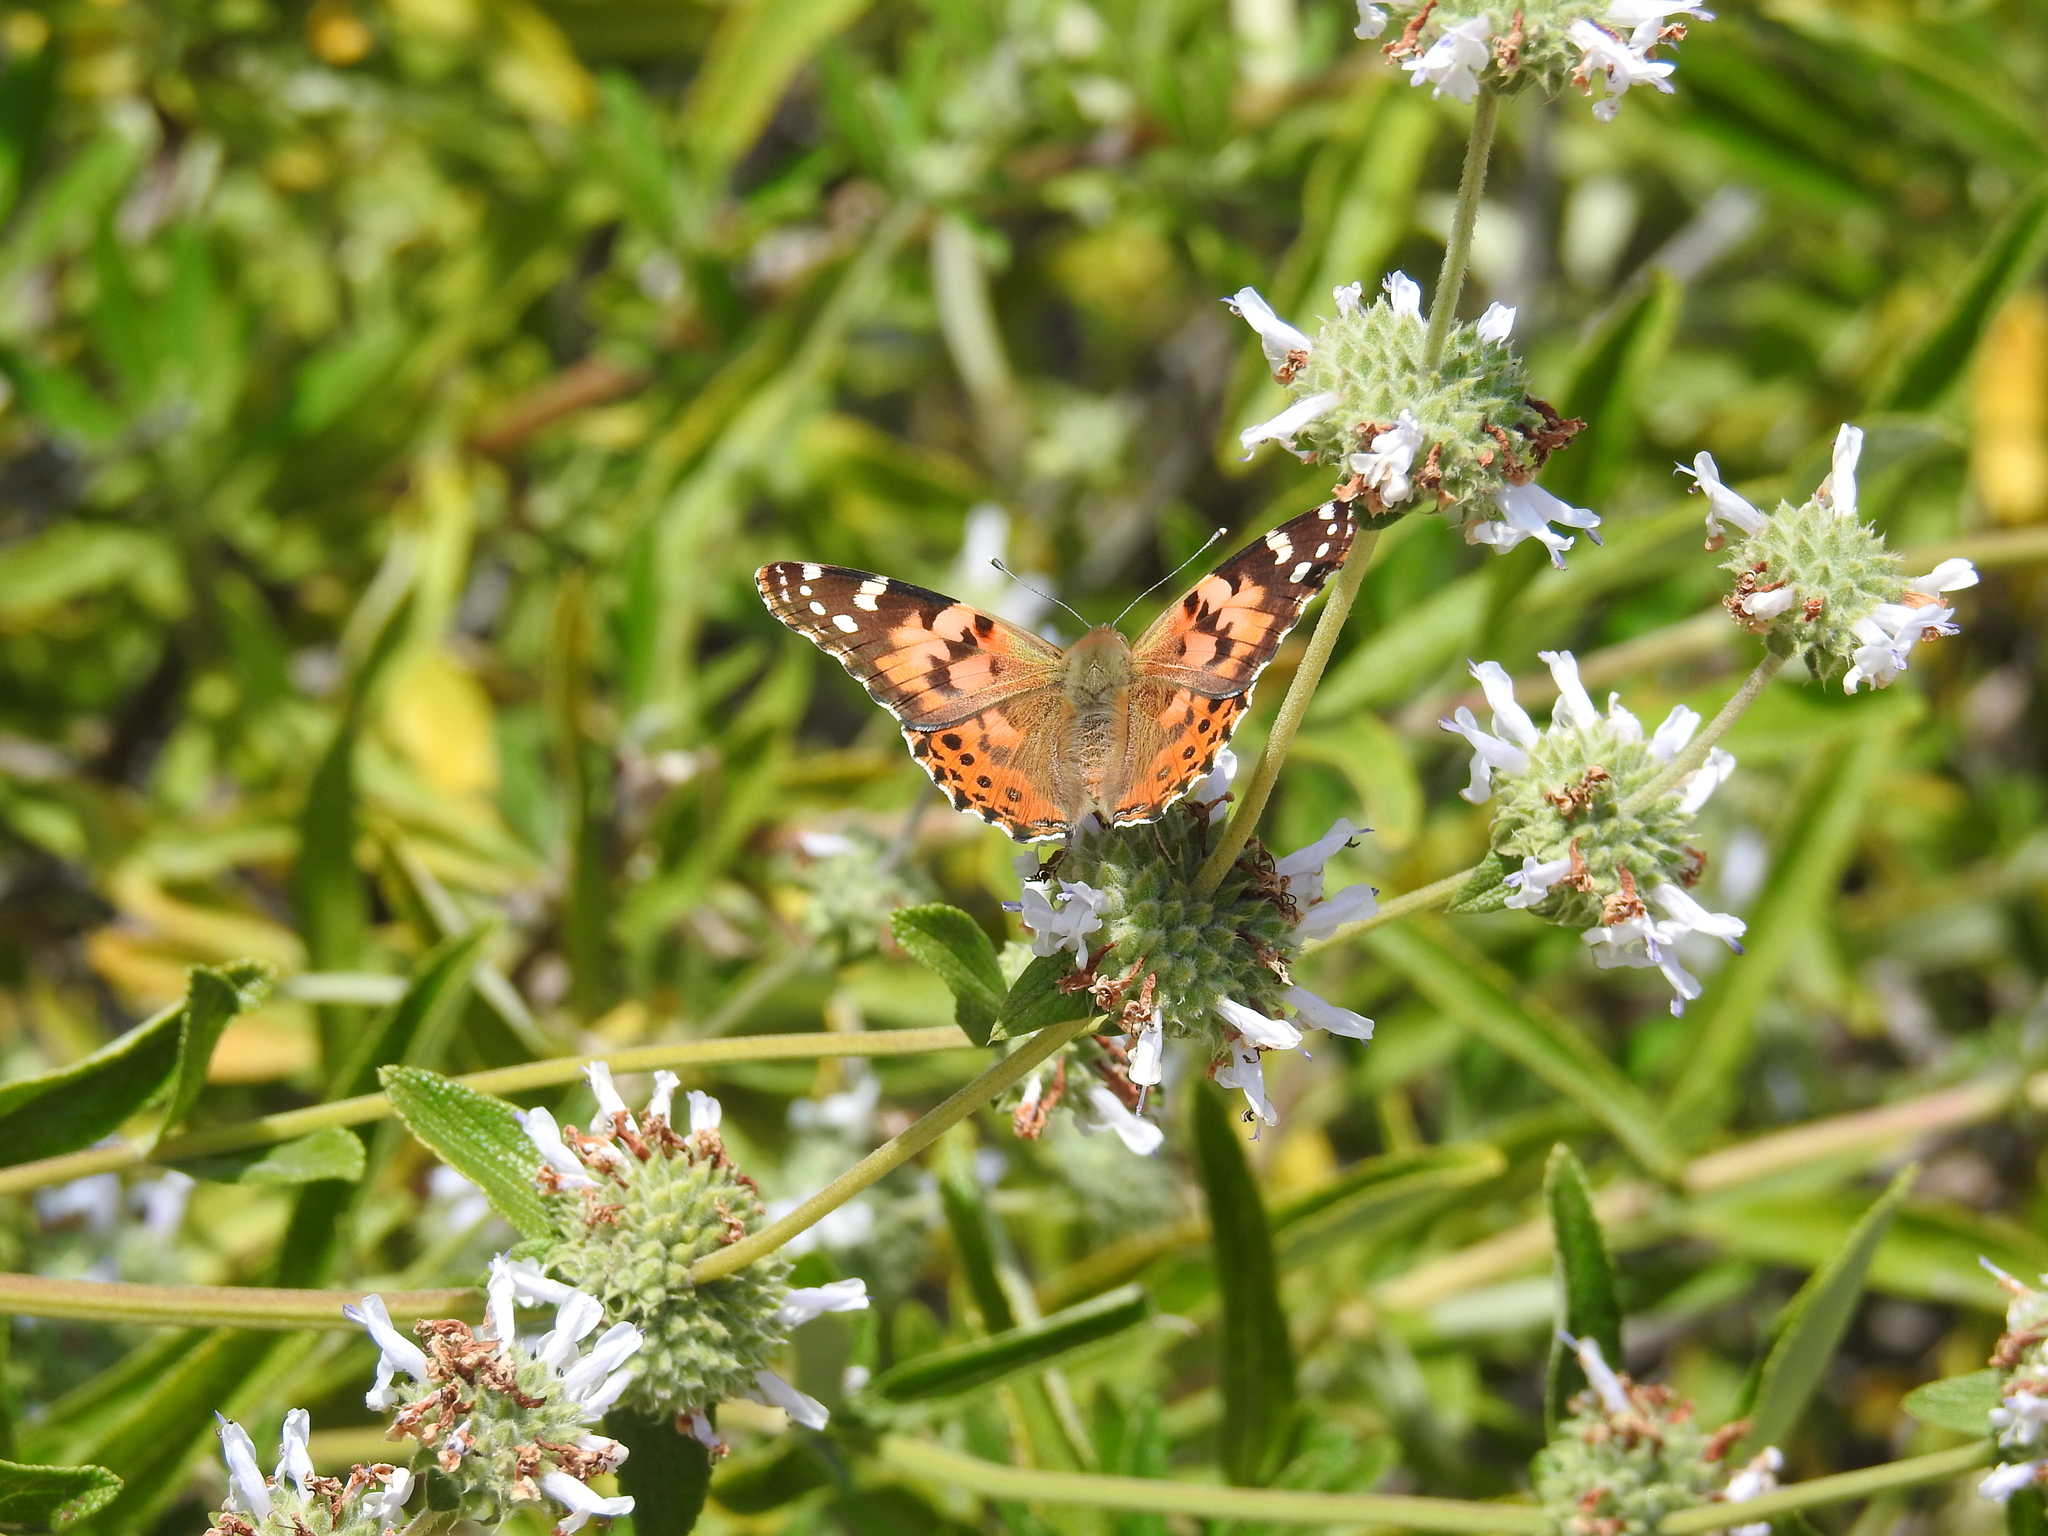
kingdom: Animalia
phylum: Arthropoda
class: Insecta
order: Lepidoptera
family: Nymphalidae
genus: Vanessa
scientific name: Vanessa cardui
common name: Painted lady
